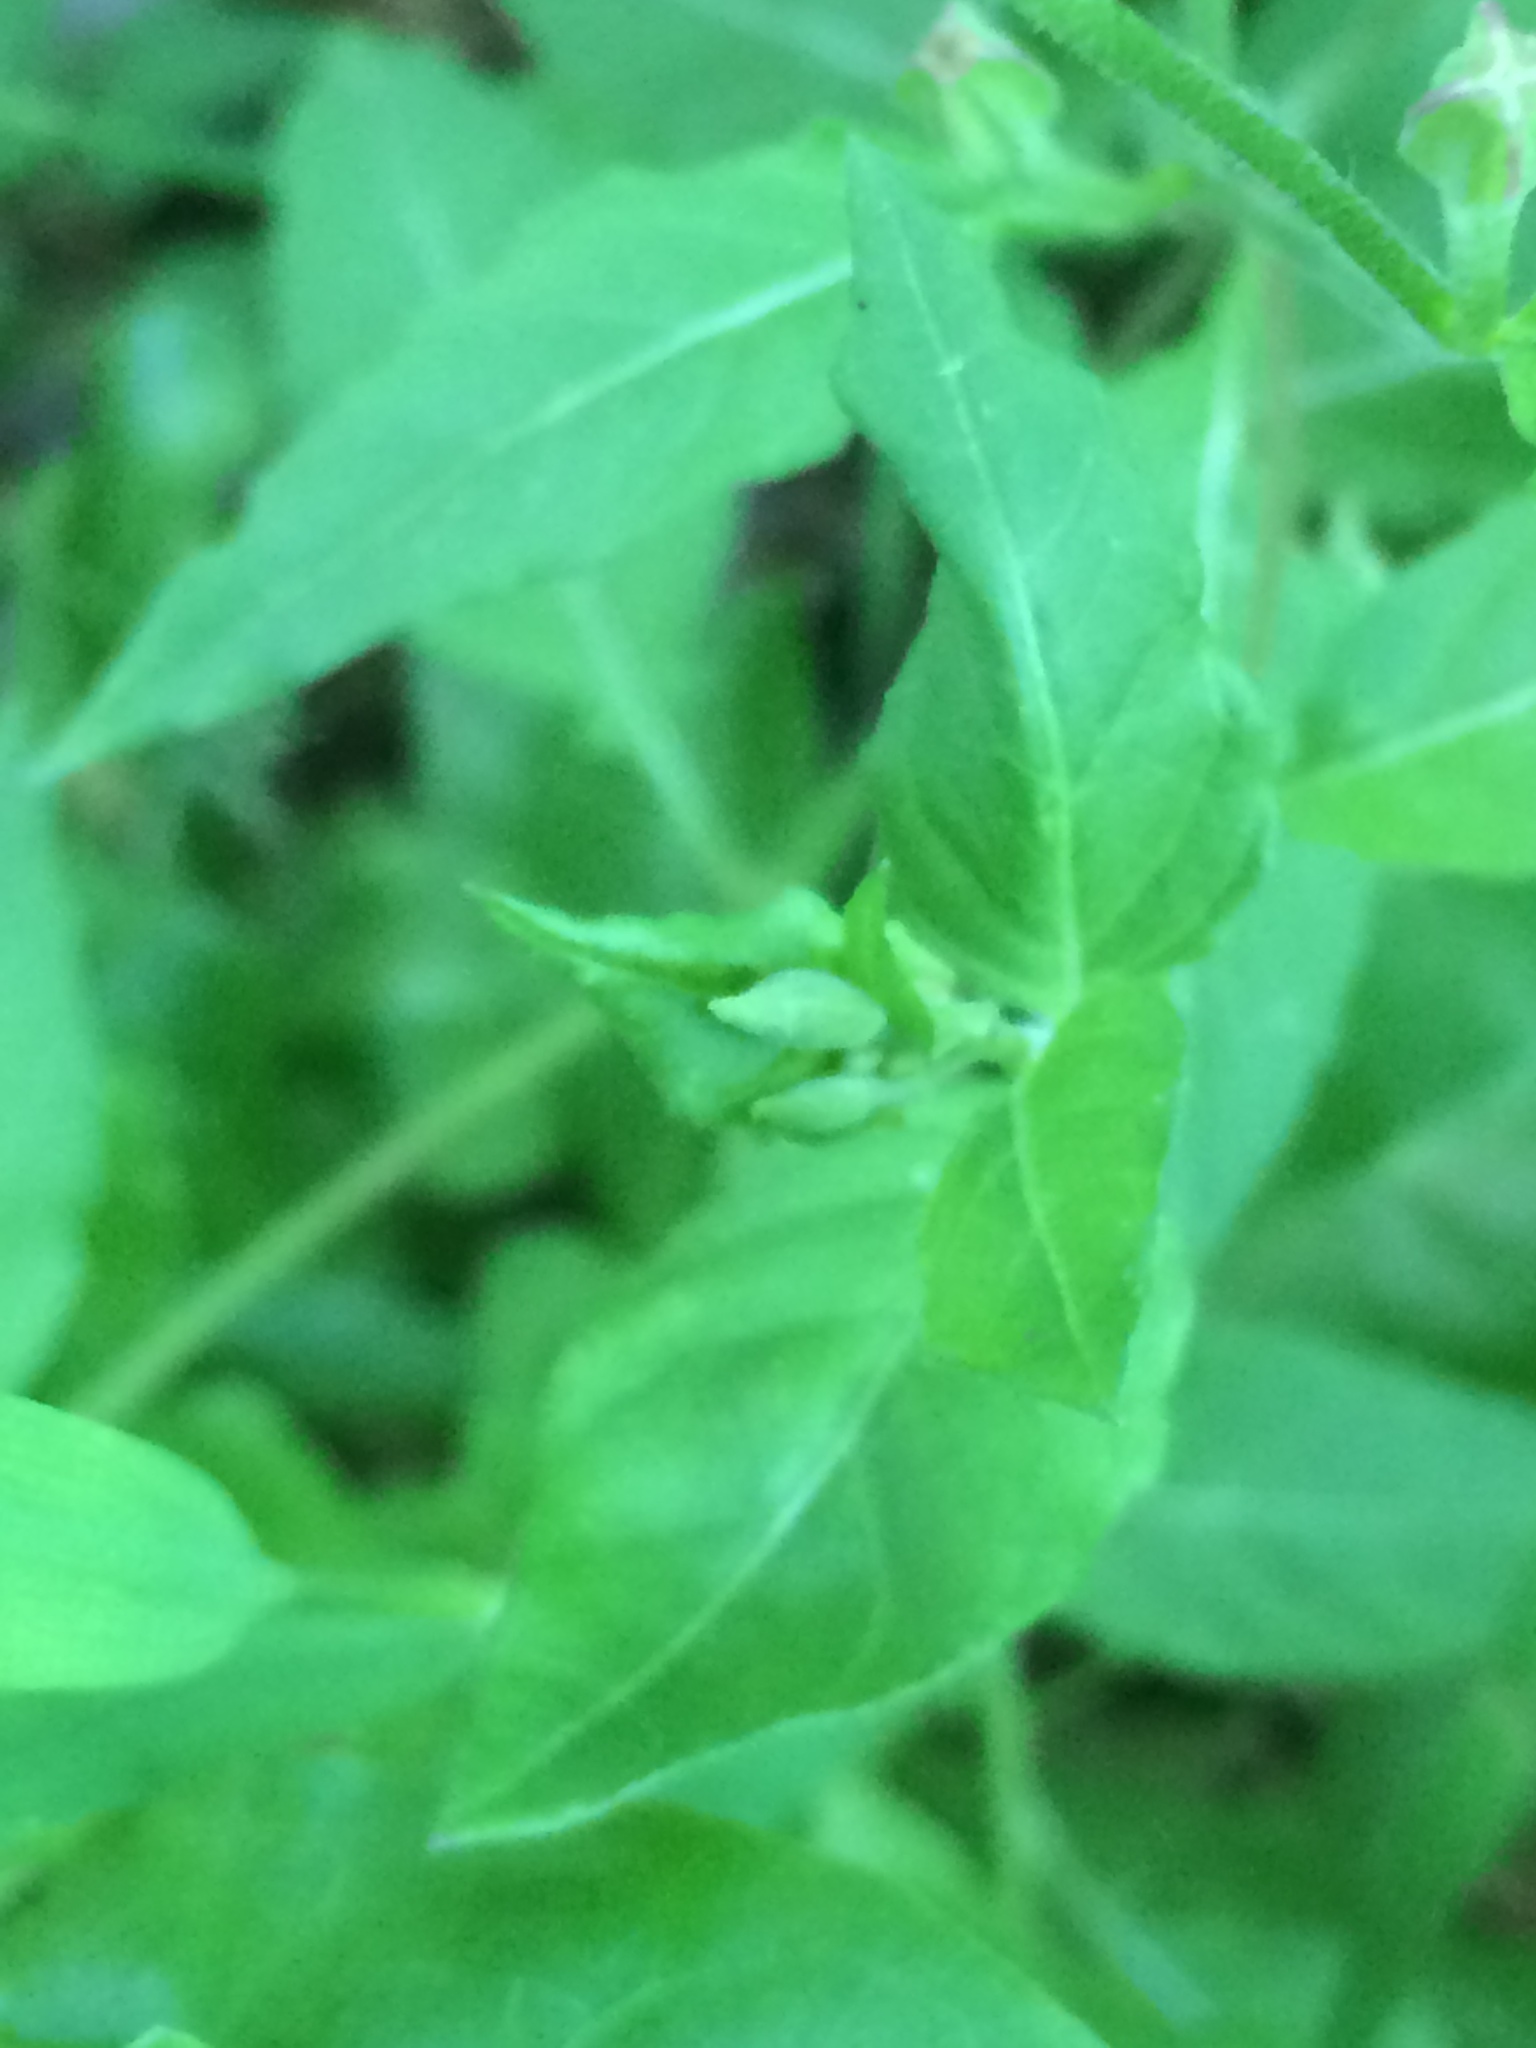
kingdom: Plantae
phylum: Tracheophyta
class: Magnoliopsida
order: Myrtales
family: Onagraceae
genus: Oenothera
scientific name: Oenothera rosea
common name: Rosy evening-primrose
